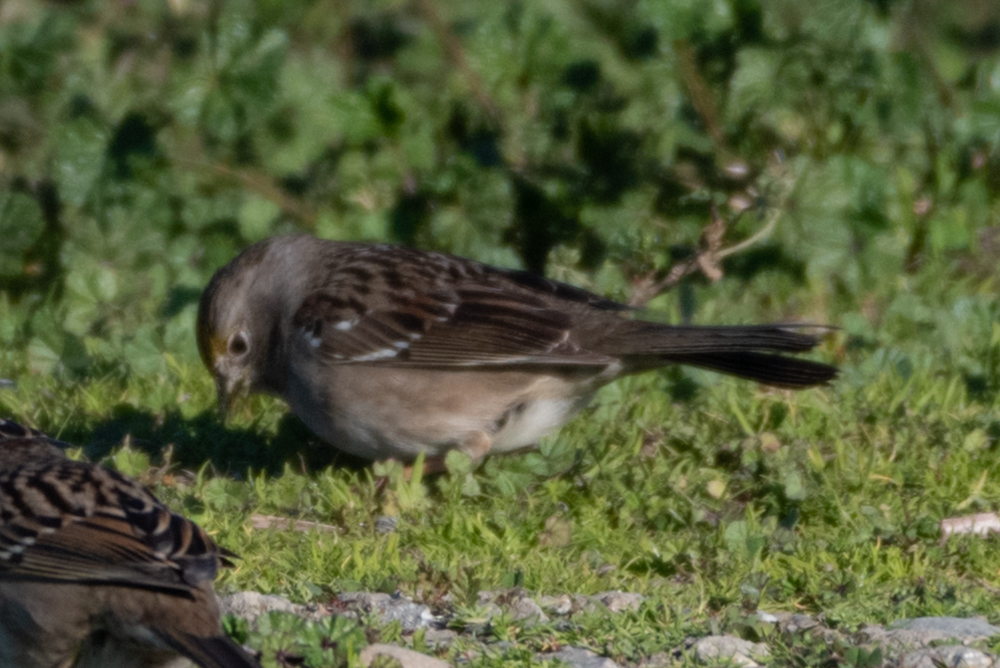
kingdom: Animalia
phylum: Chordata
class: Aves
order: Passeriformes
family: Passerellidae
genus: Zonotrichia
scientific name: Zonotrichia atricapilla
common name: Golden-crowned sparrow
